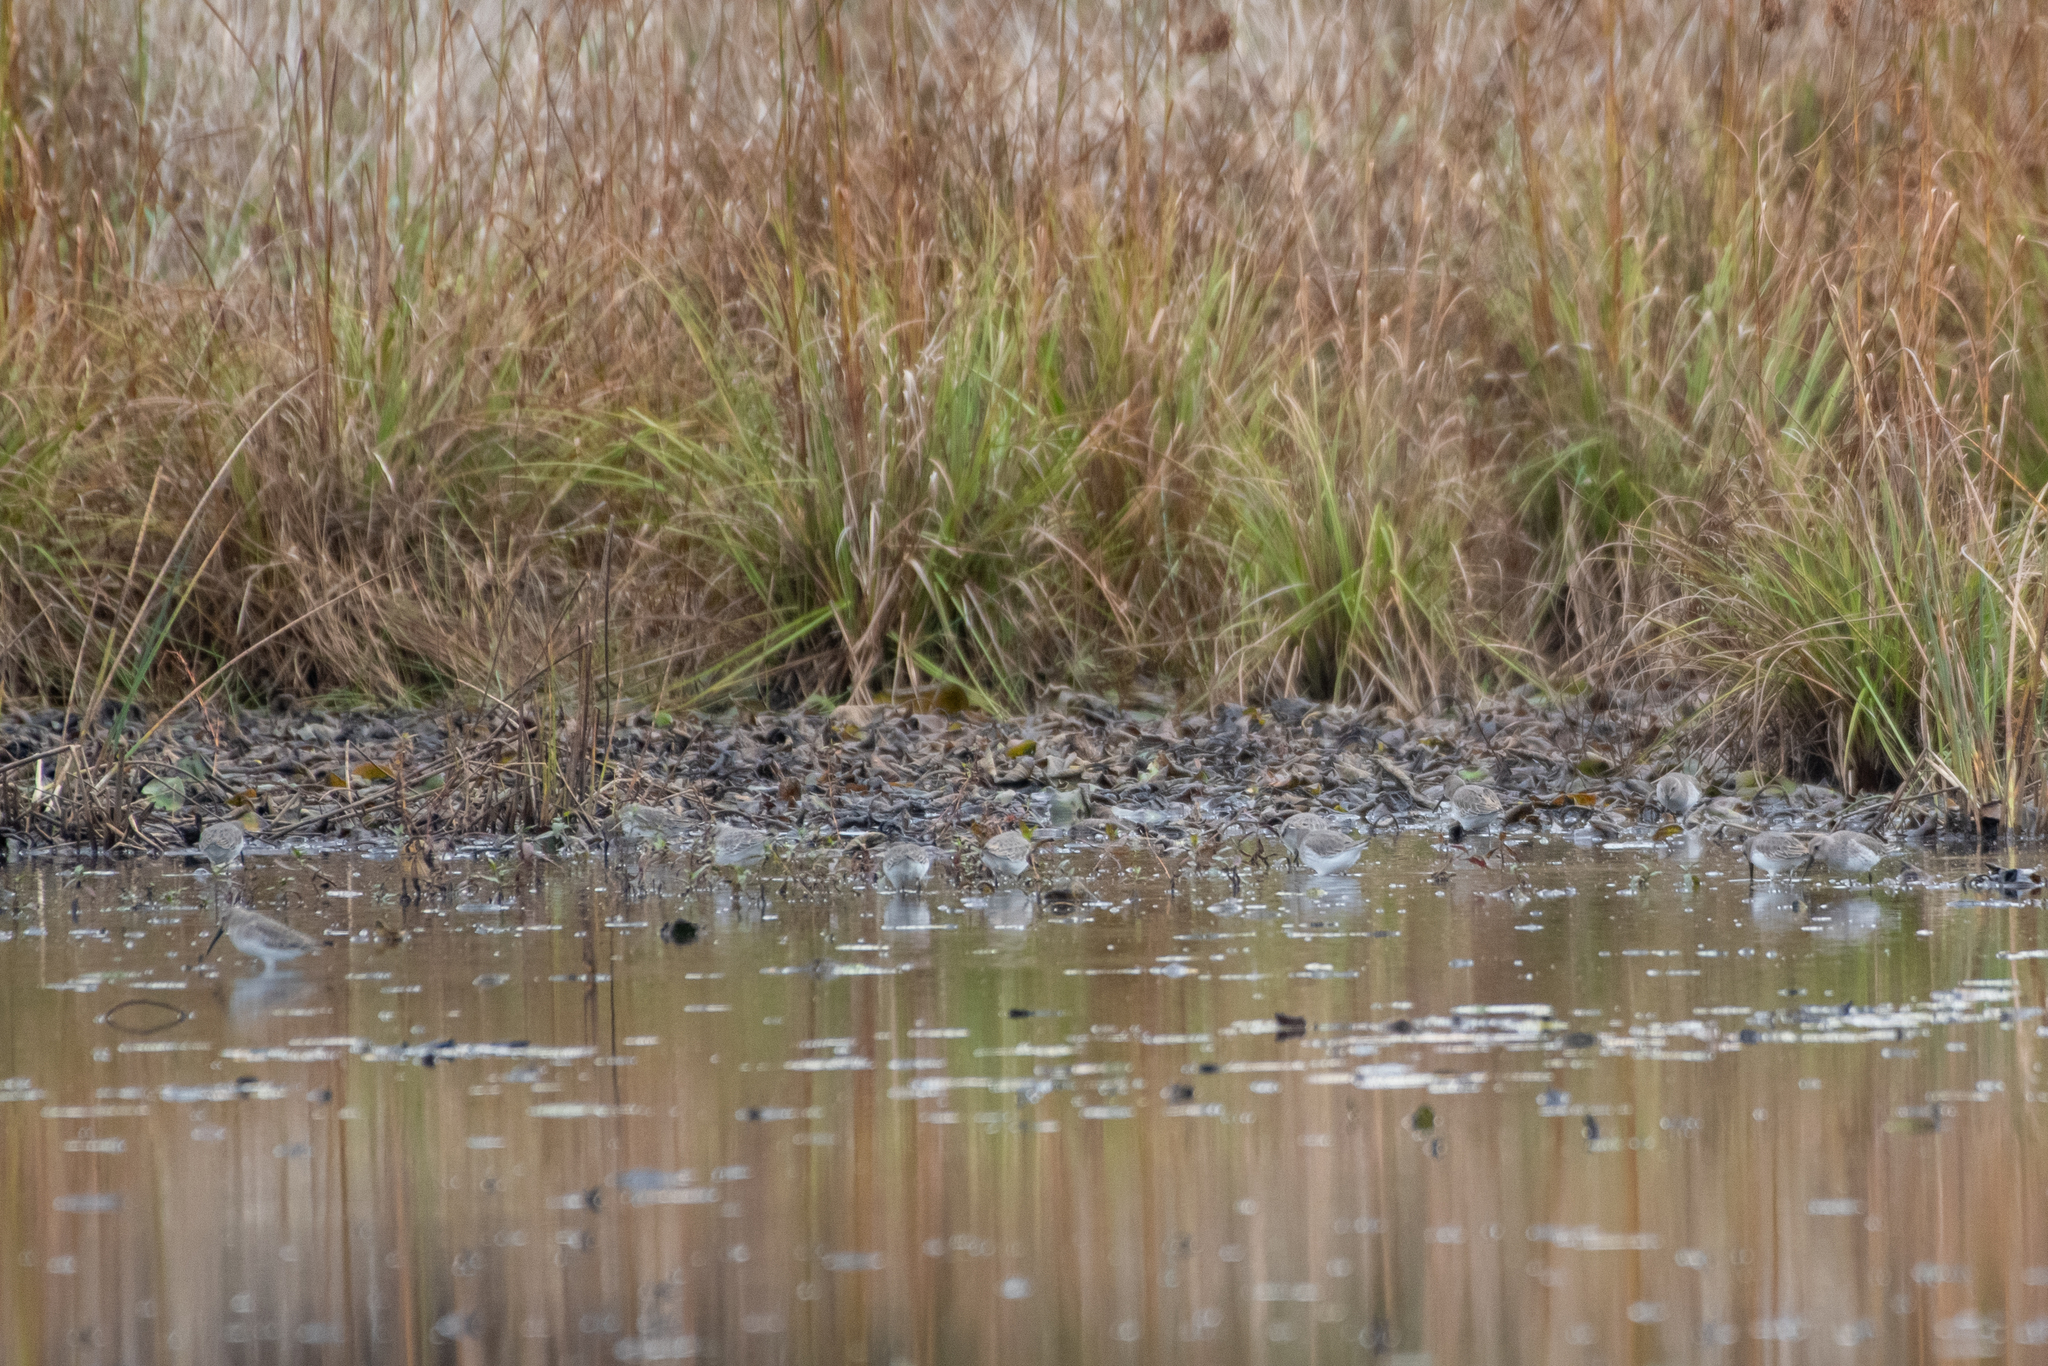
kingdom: Animalia
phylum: Chordata
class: Aves
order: Charadriiformes
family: Scolopacidae
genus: Calidris
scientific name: Calidris alpina
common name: Dunlin
